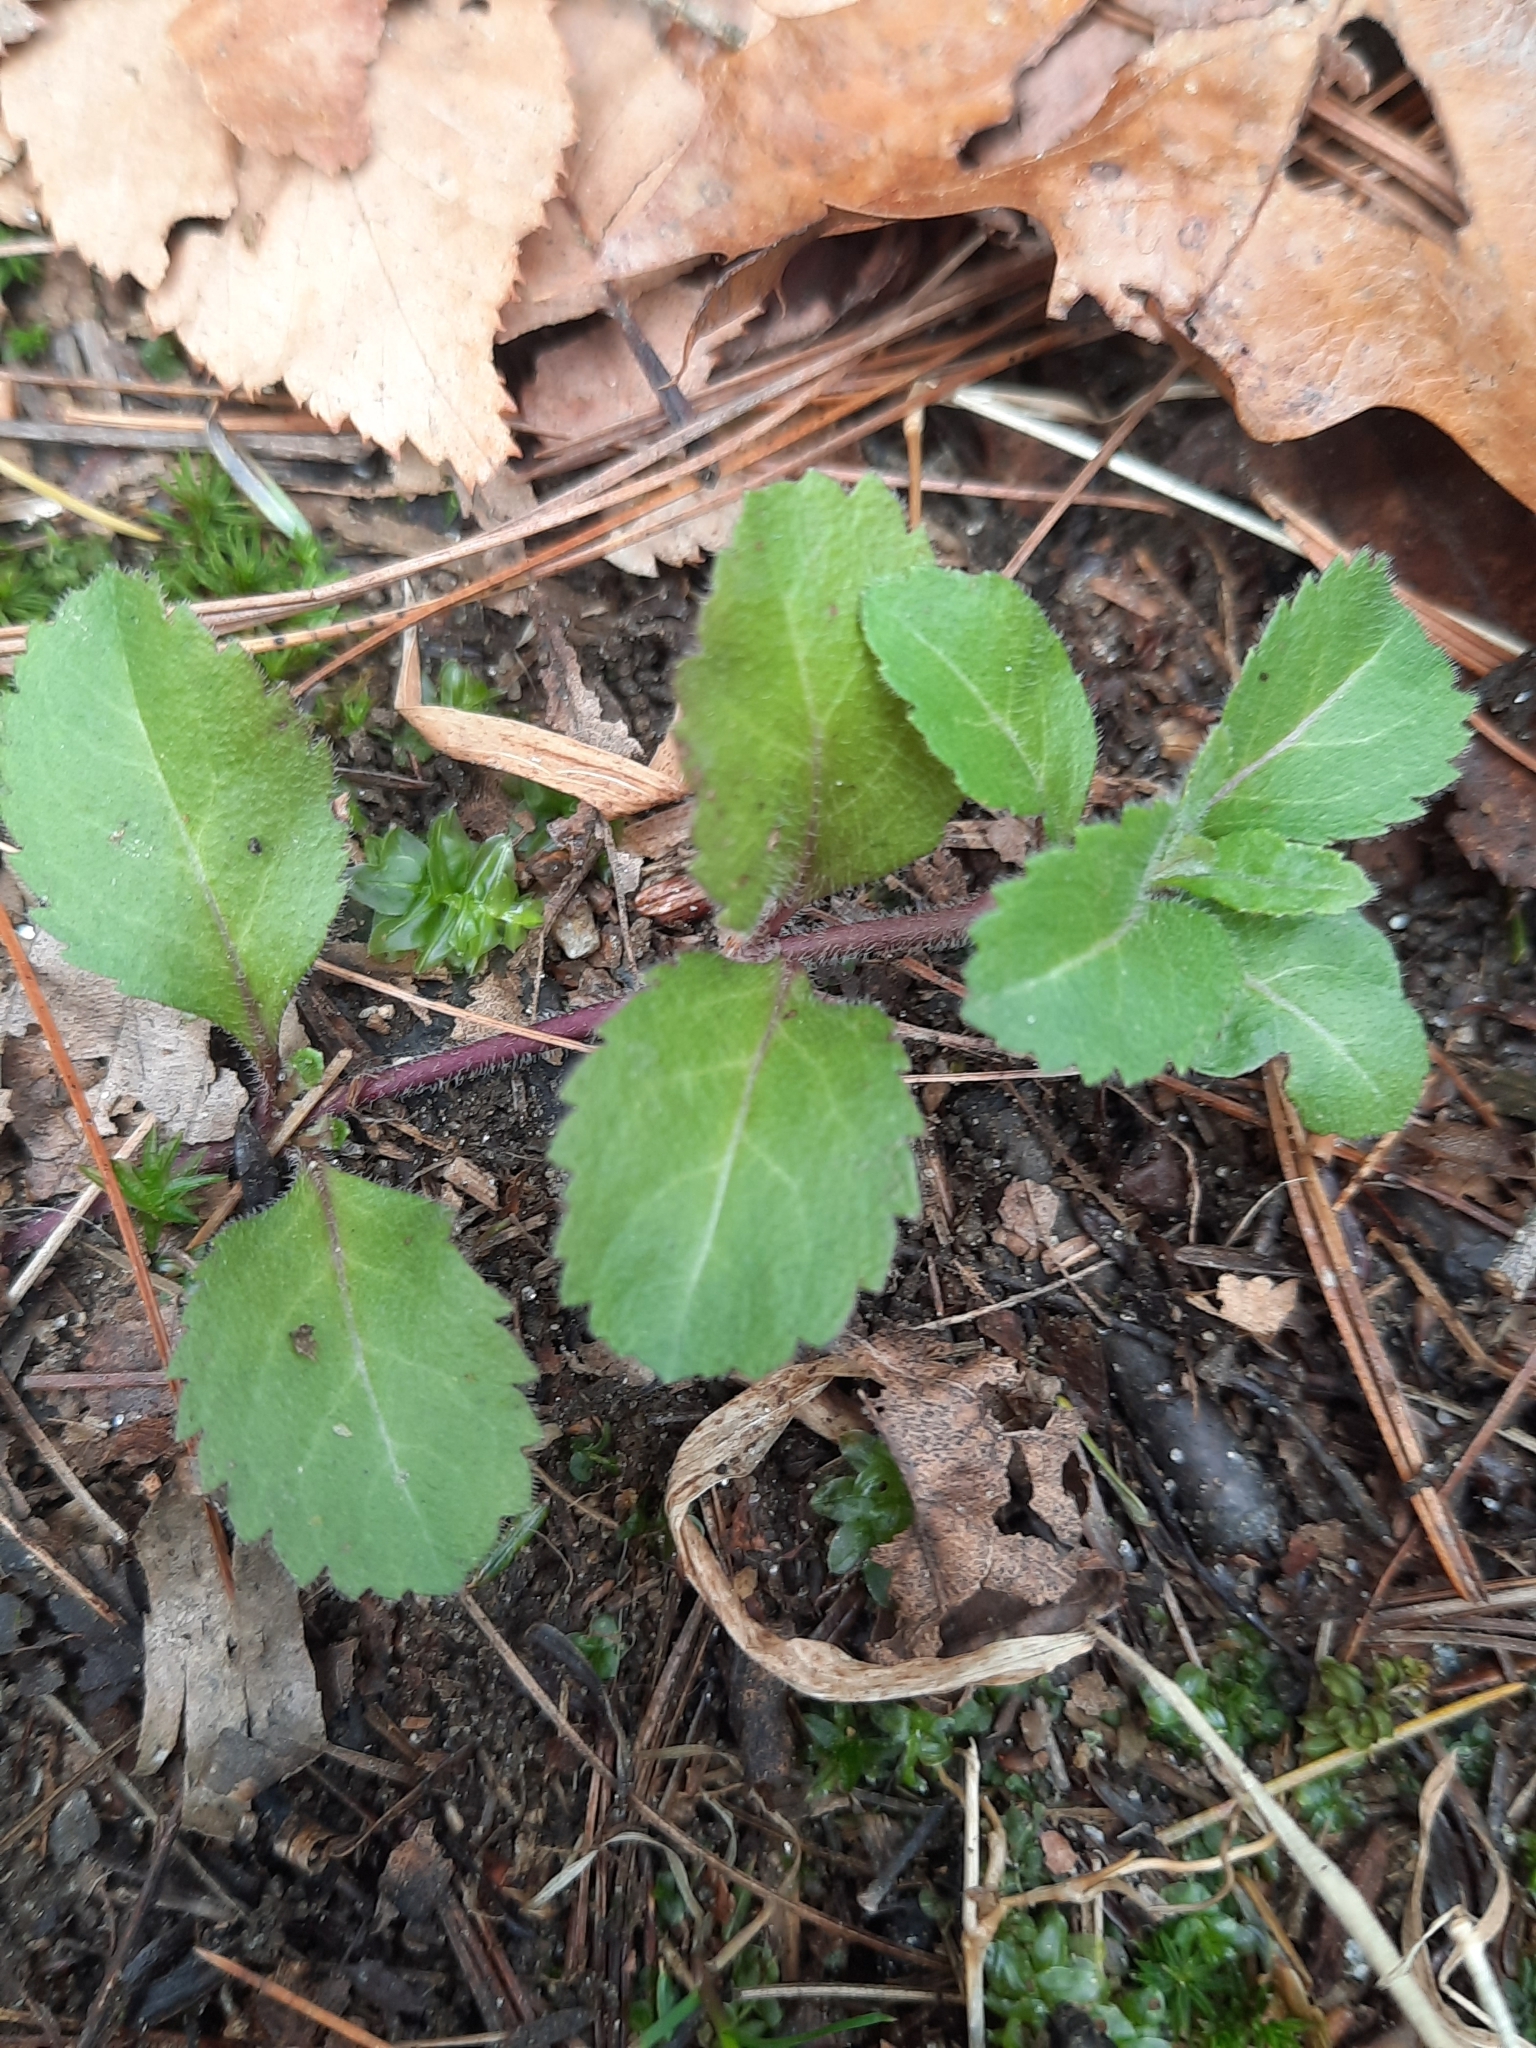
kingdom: Plantae
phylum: Tracheophyta
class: Magnoliopsida
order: Lamiales
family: Plantaginaceae
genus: Veronica
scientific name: Veronica officinalis
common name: Common speedwell
